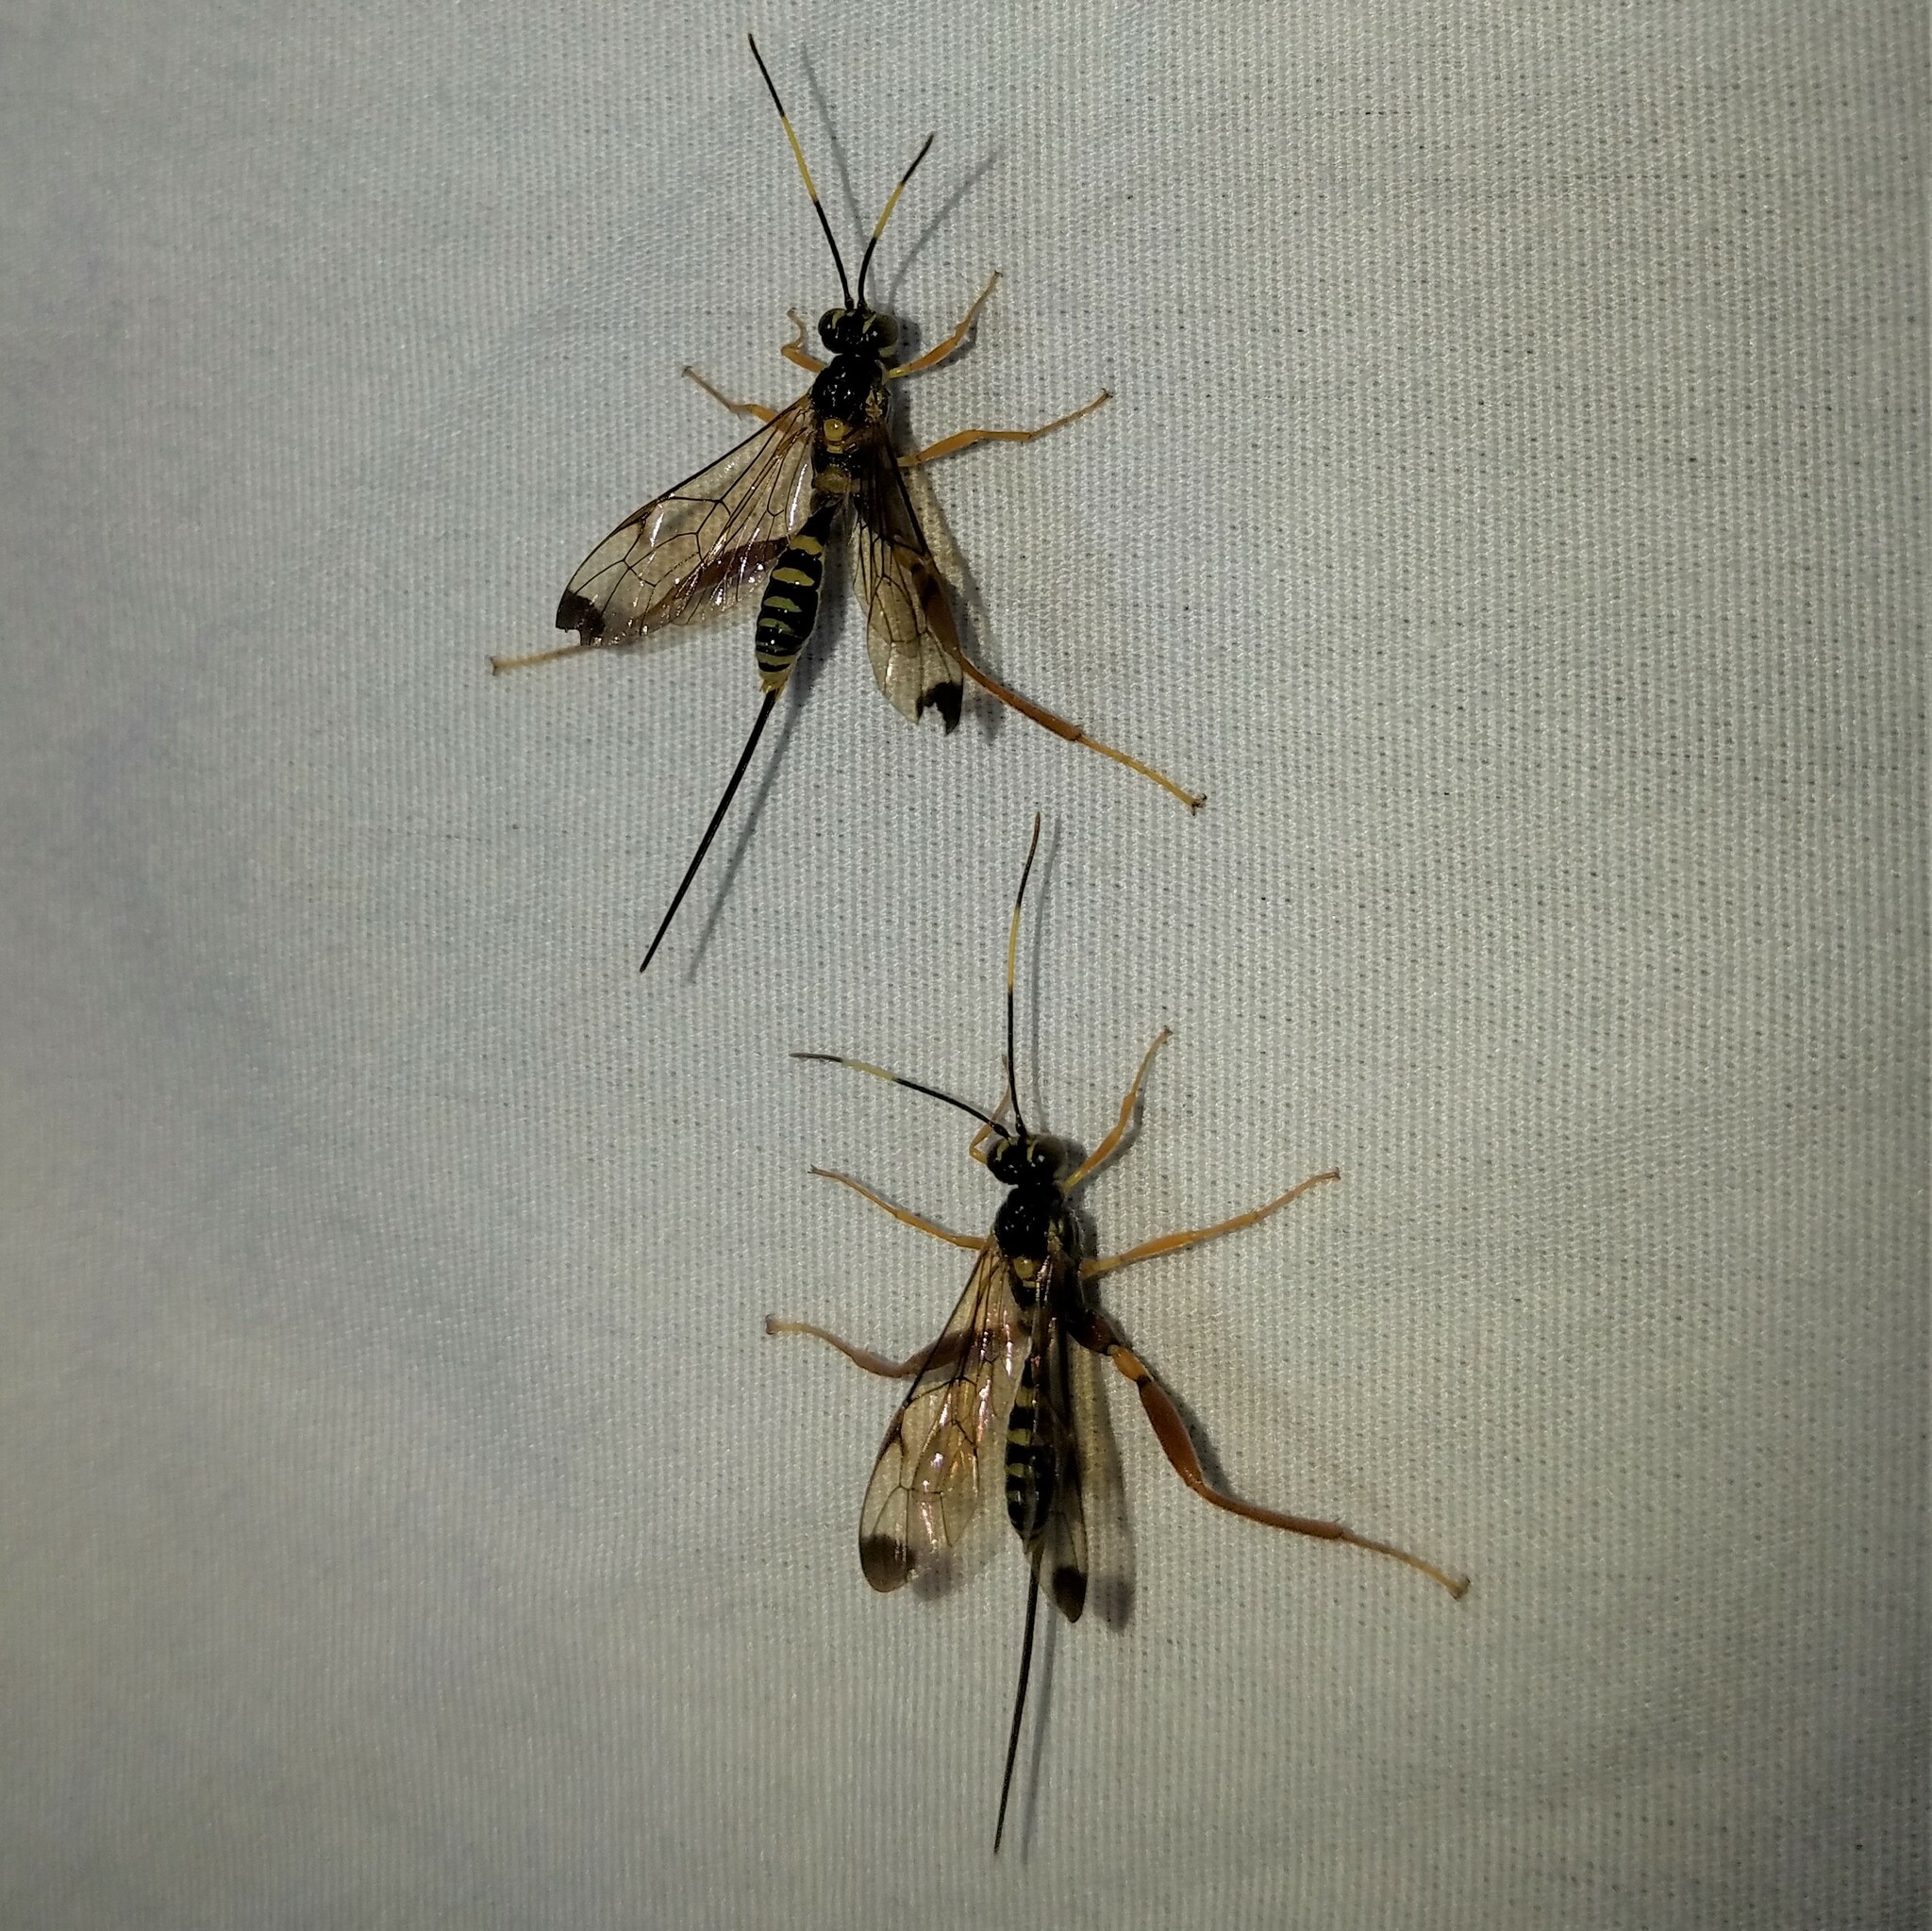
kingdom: Animalia
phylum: Arthropoda
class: Insecta
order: Hymenoptera
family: Ichneumonidae
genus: Spilopteron
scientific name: Spilopteron occiputale
